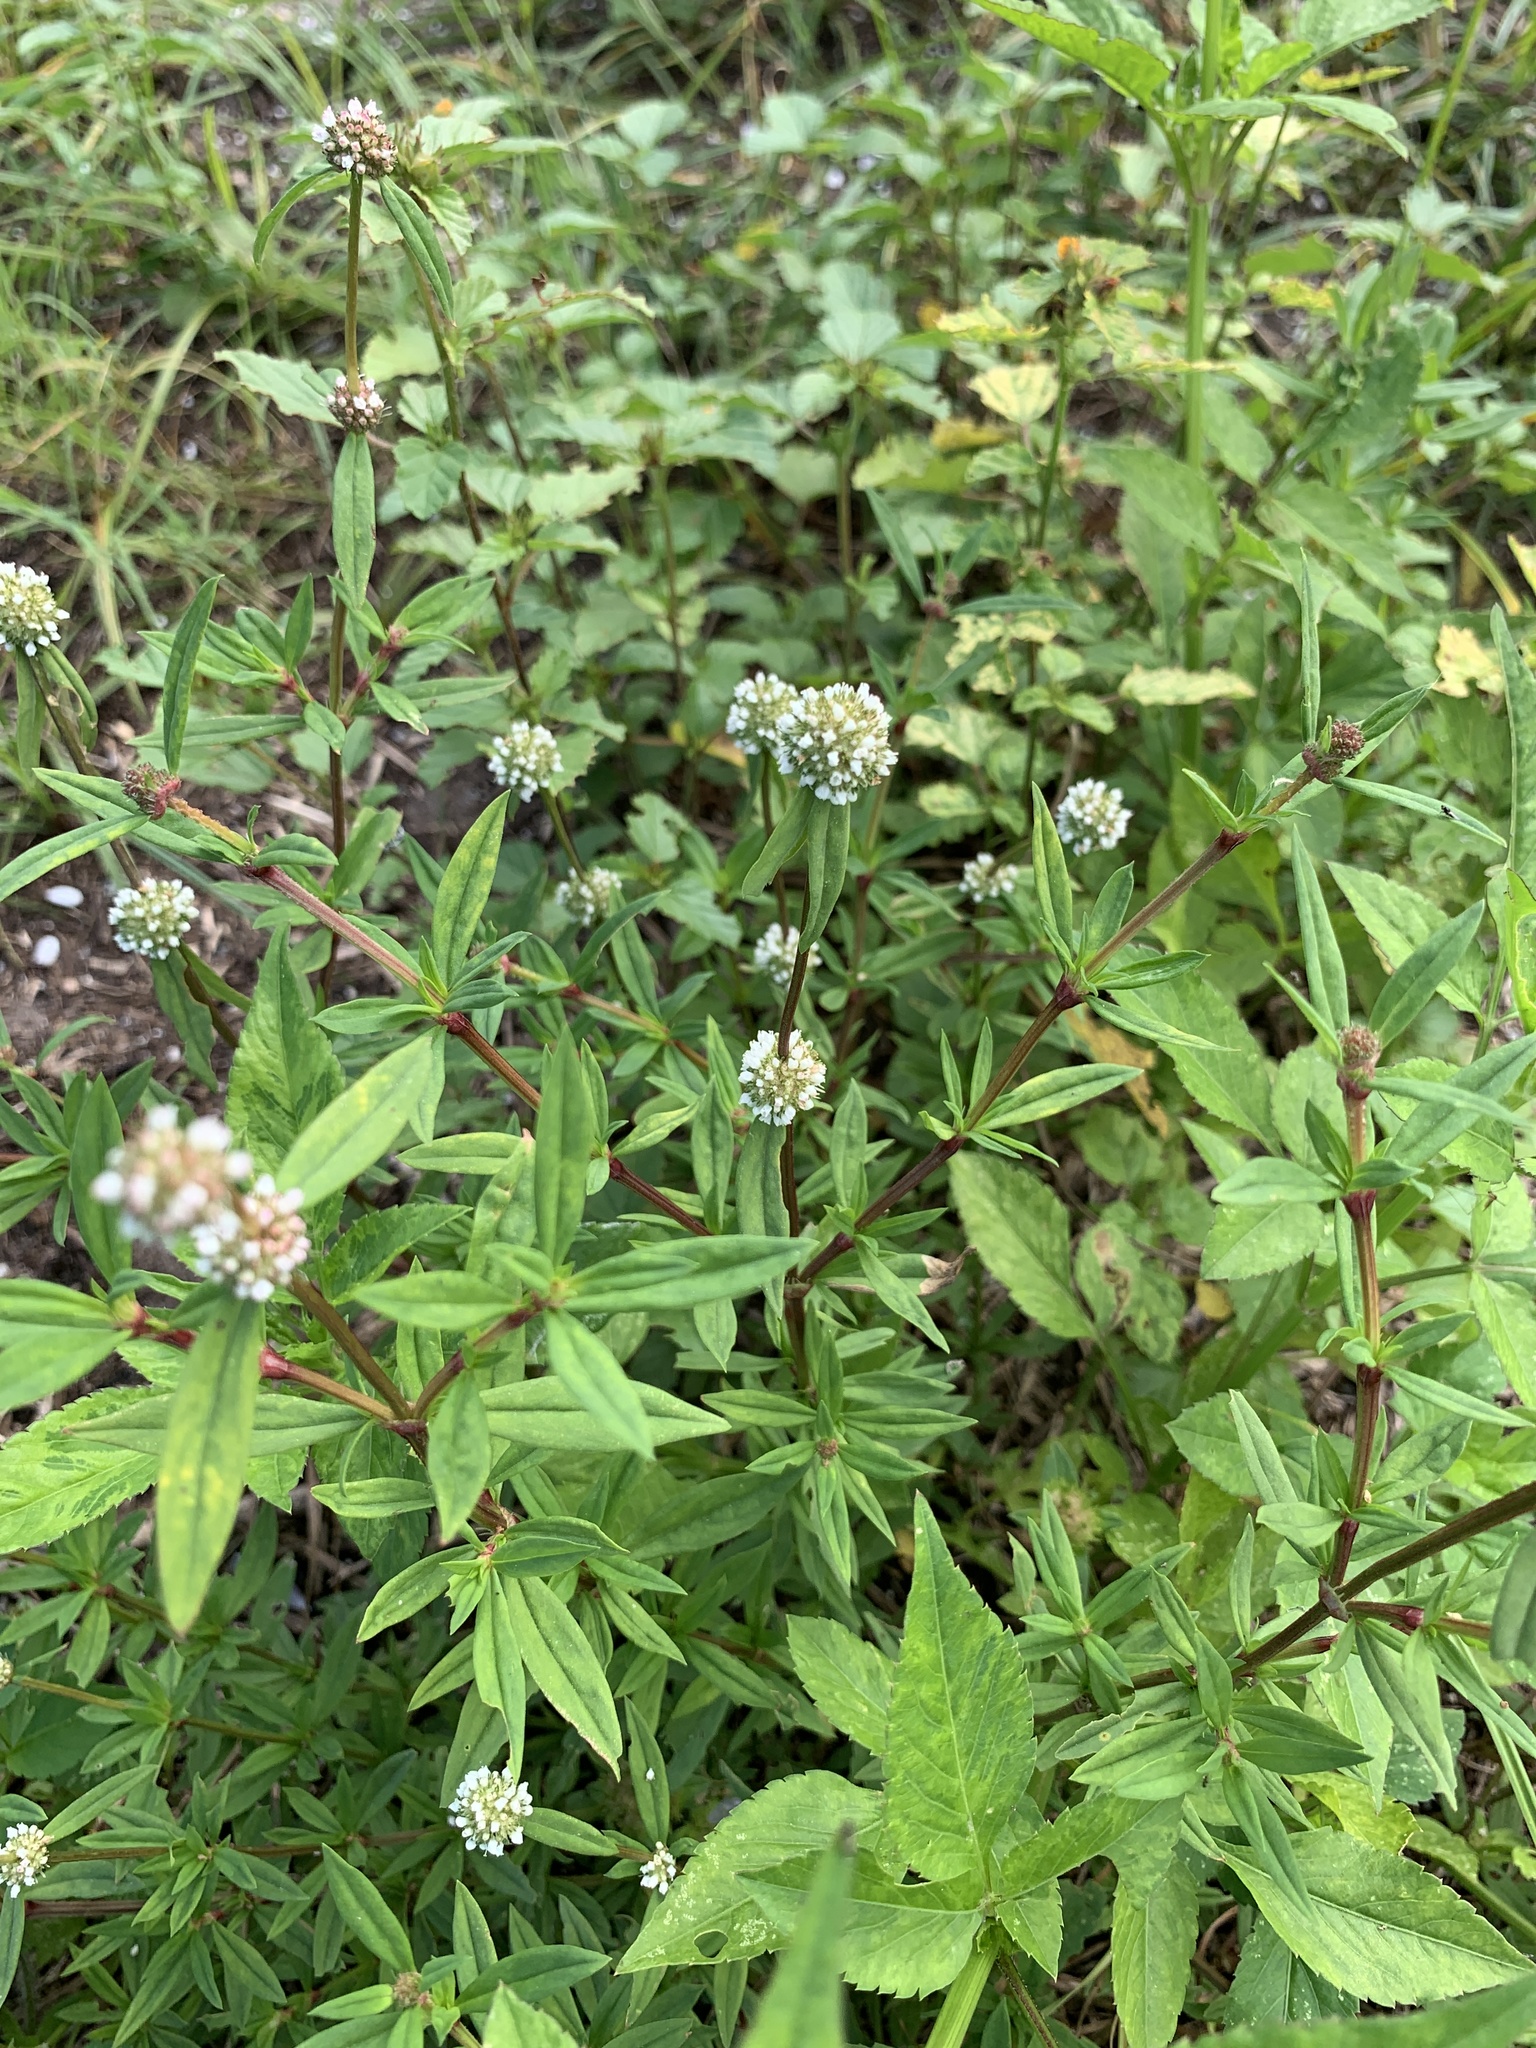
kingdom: Plantae
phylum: Tracheophyta
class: Magnoliopsida
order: Gentianales
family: Rubiaceae
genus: Spermacoce
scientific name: Spermacoce verticillata
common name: Shrubby false buttonweed
